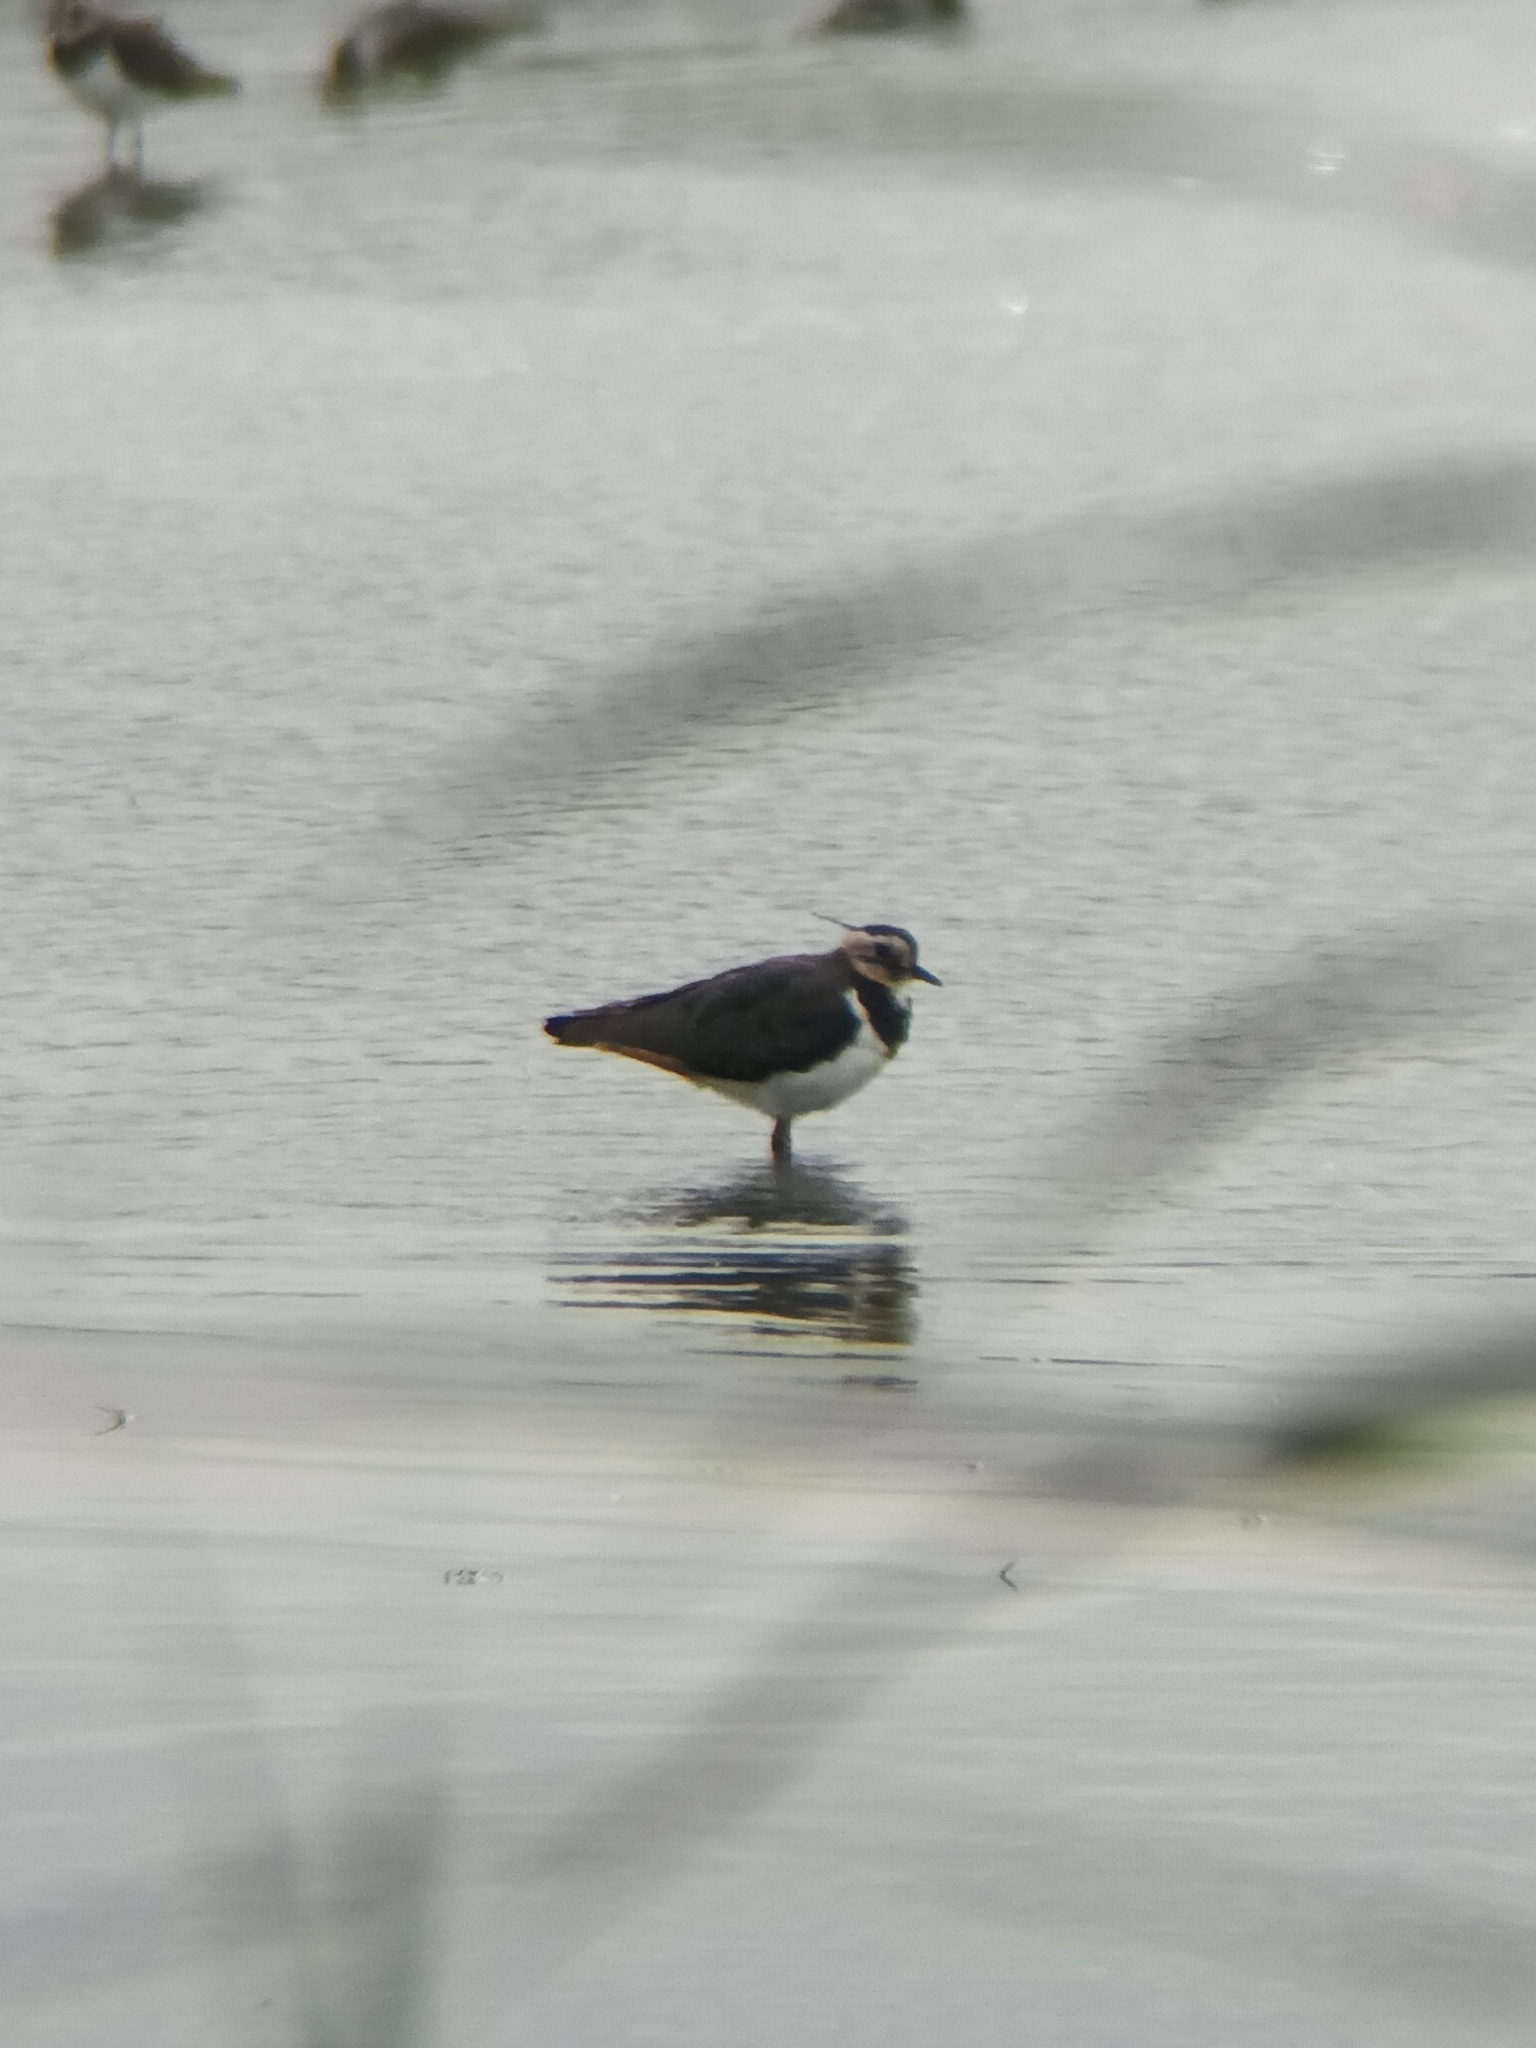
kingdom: Animalia
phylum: Chordata
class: Aves
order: Charadriiformes
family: Charadriidae
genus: Vanellus
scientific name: Vanellus vanellus
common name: Northern lapwing
